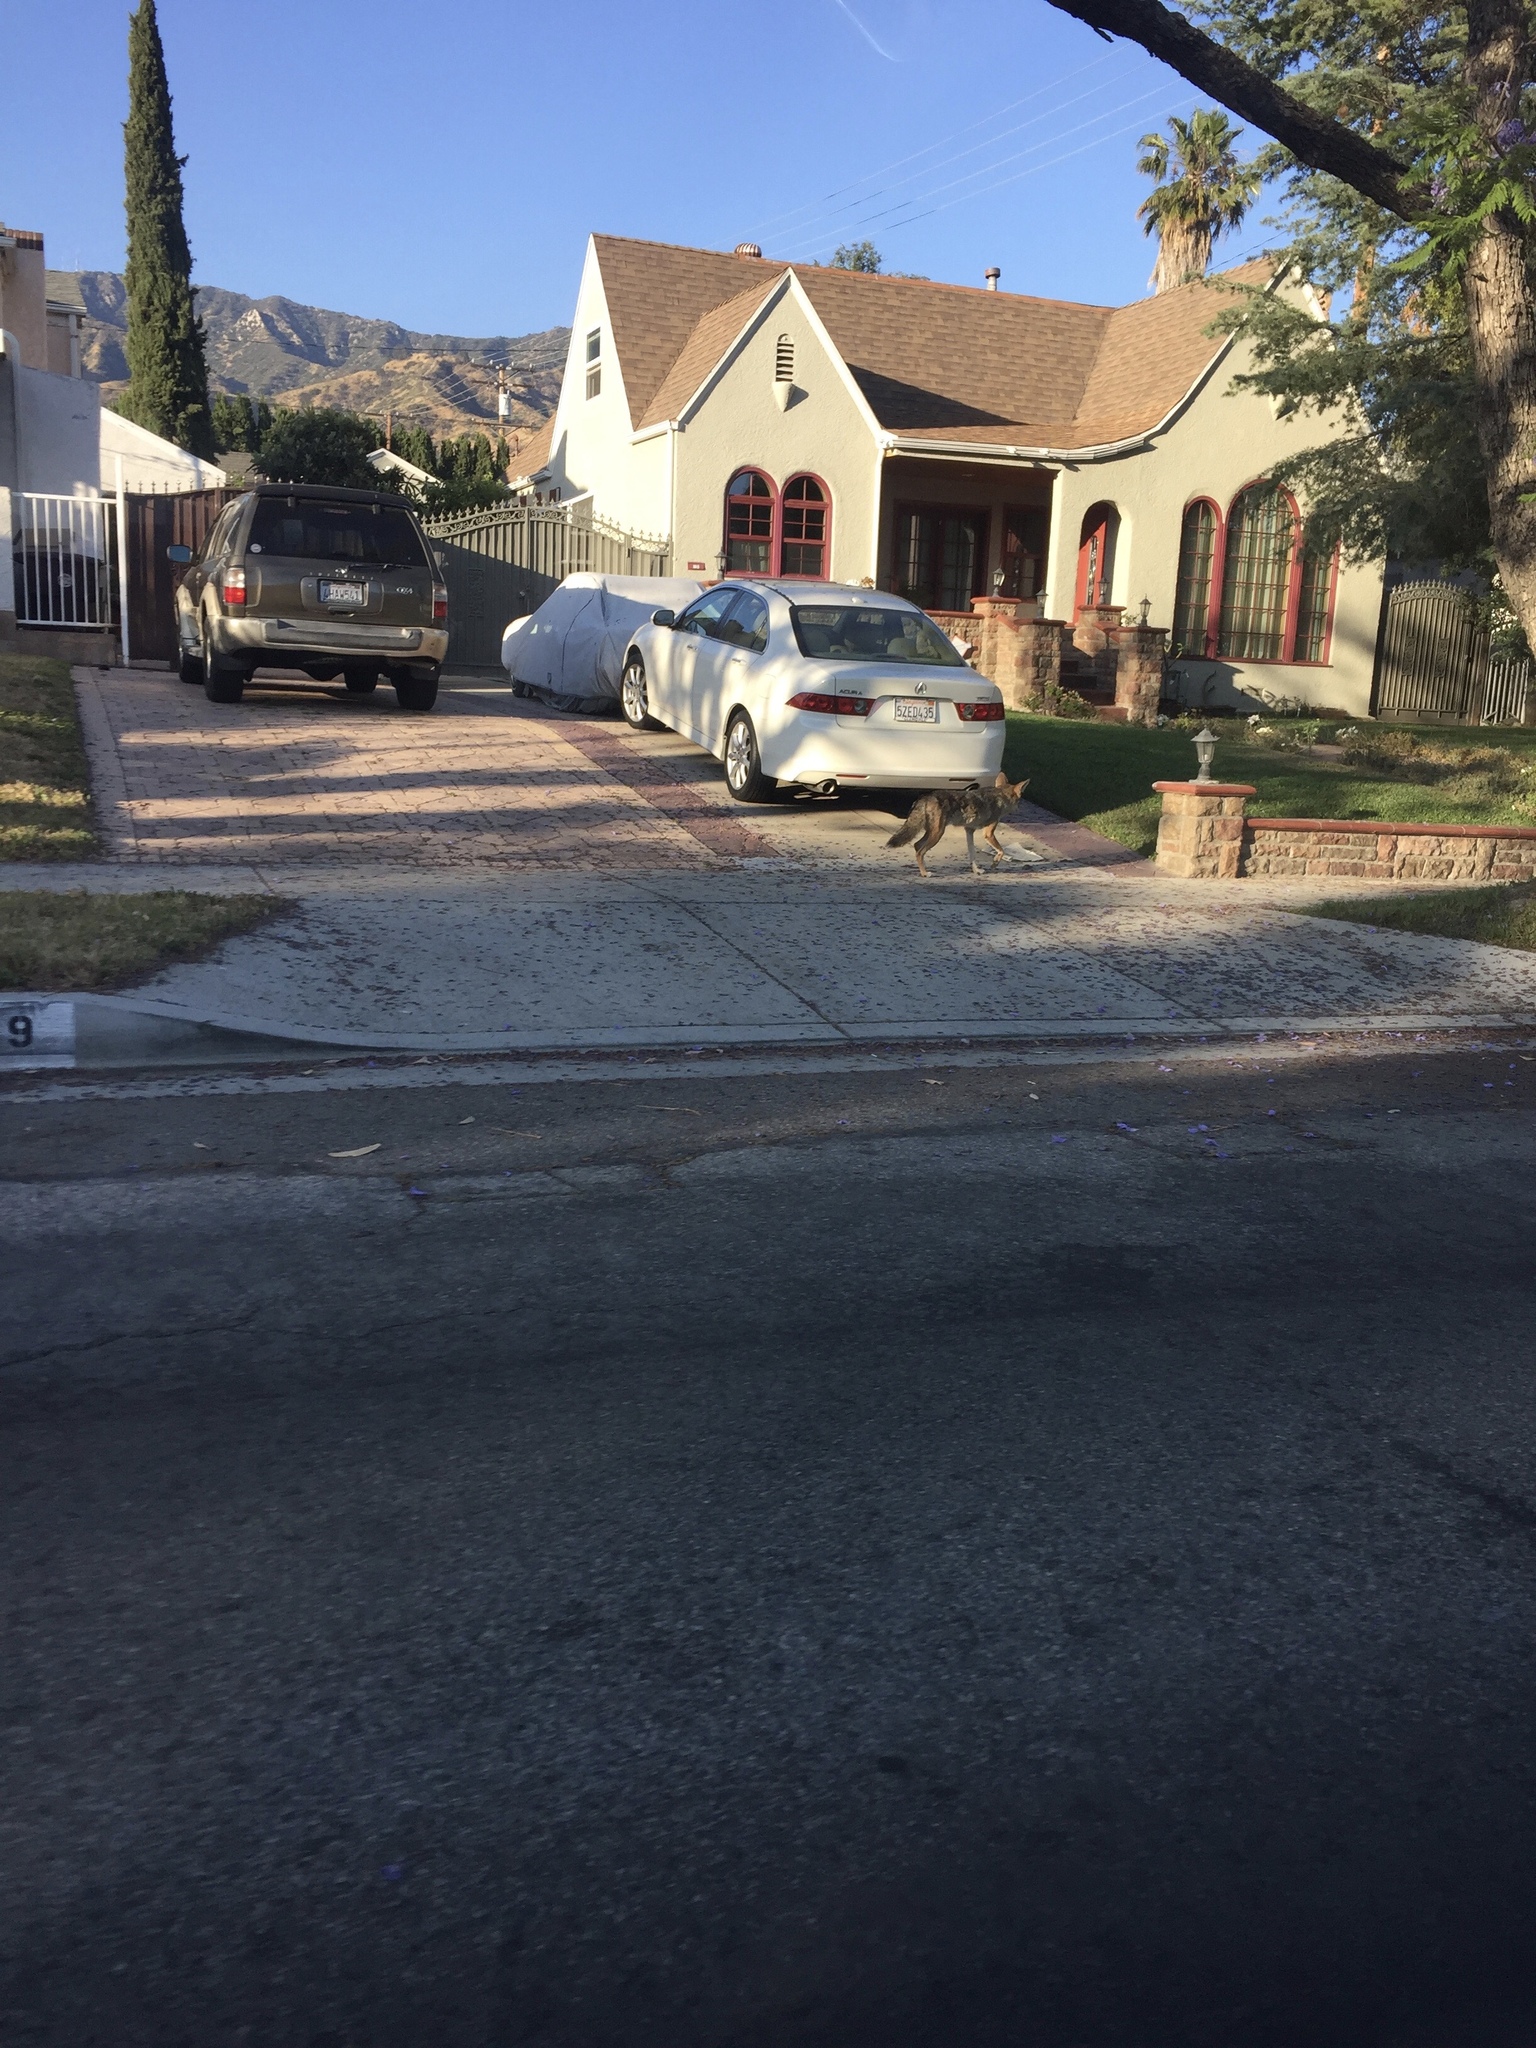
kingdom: Animalia
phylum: Chordata
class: Mammalia
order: Carnivora
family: Canidae
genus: Canis
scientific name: Canis latrans
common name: Coyote
